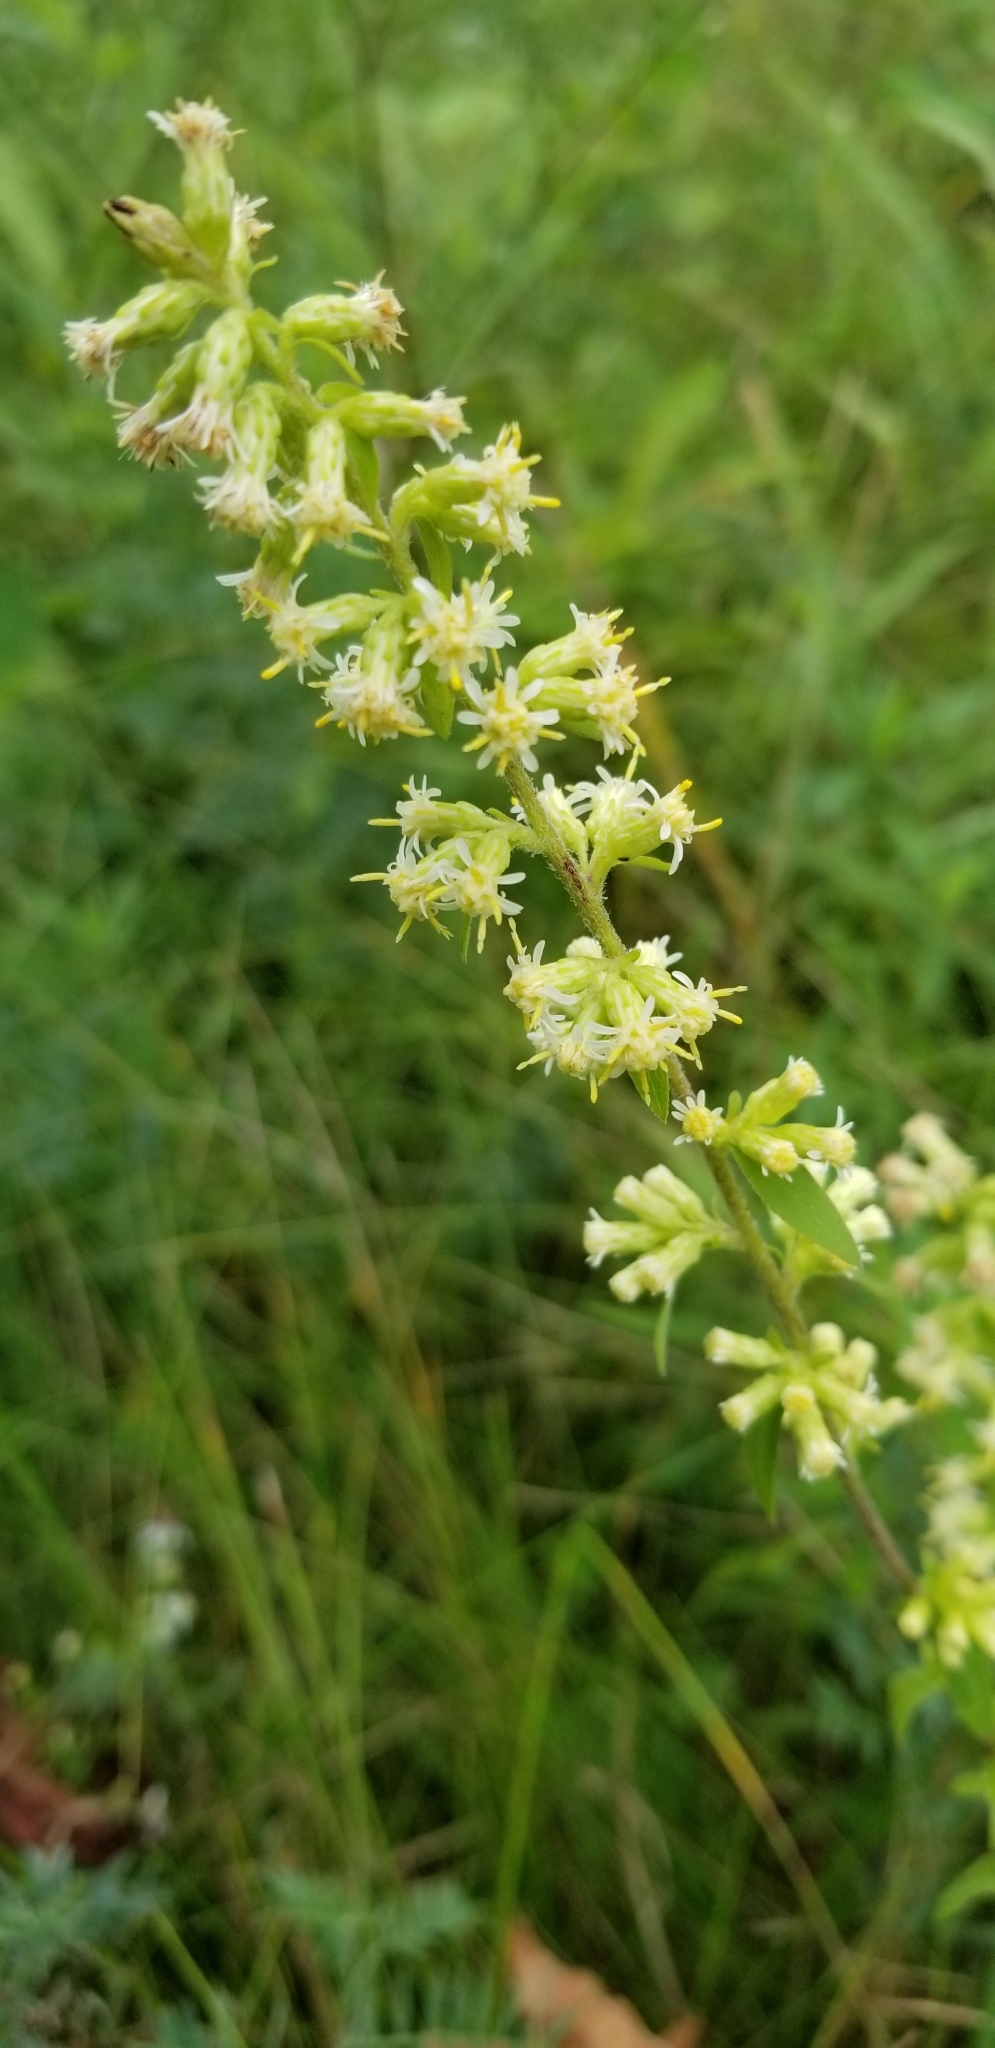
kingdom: Plantae
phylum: Tracheophyta
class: Magnoliopsida
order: Asterales
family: Asteraceae
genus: Solidago
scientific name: Solidago bicolor
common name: Silverrod
